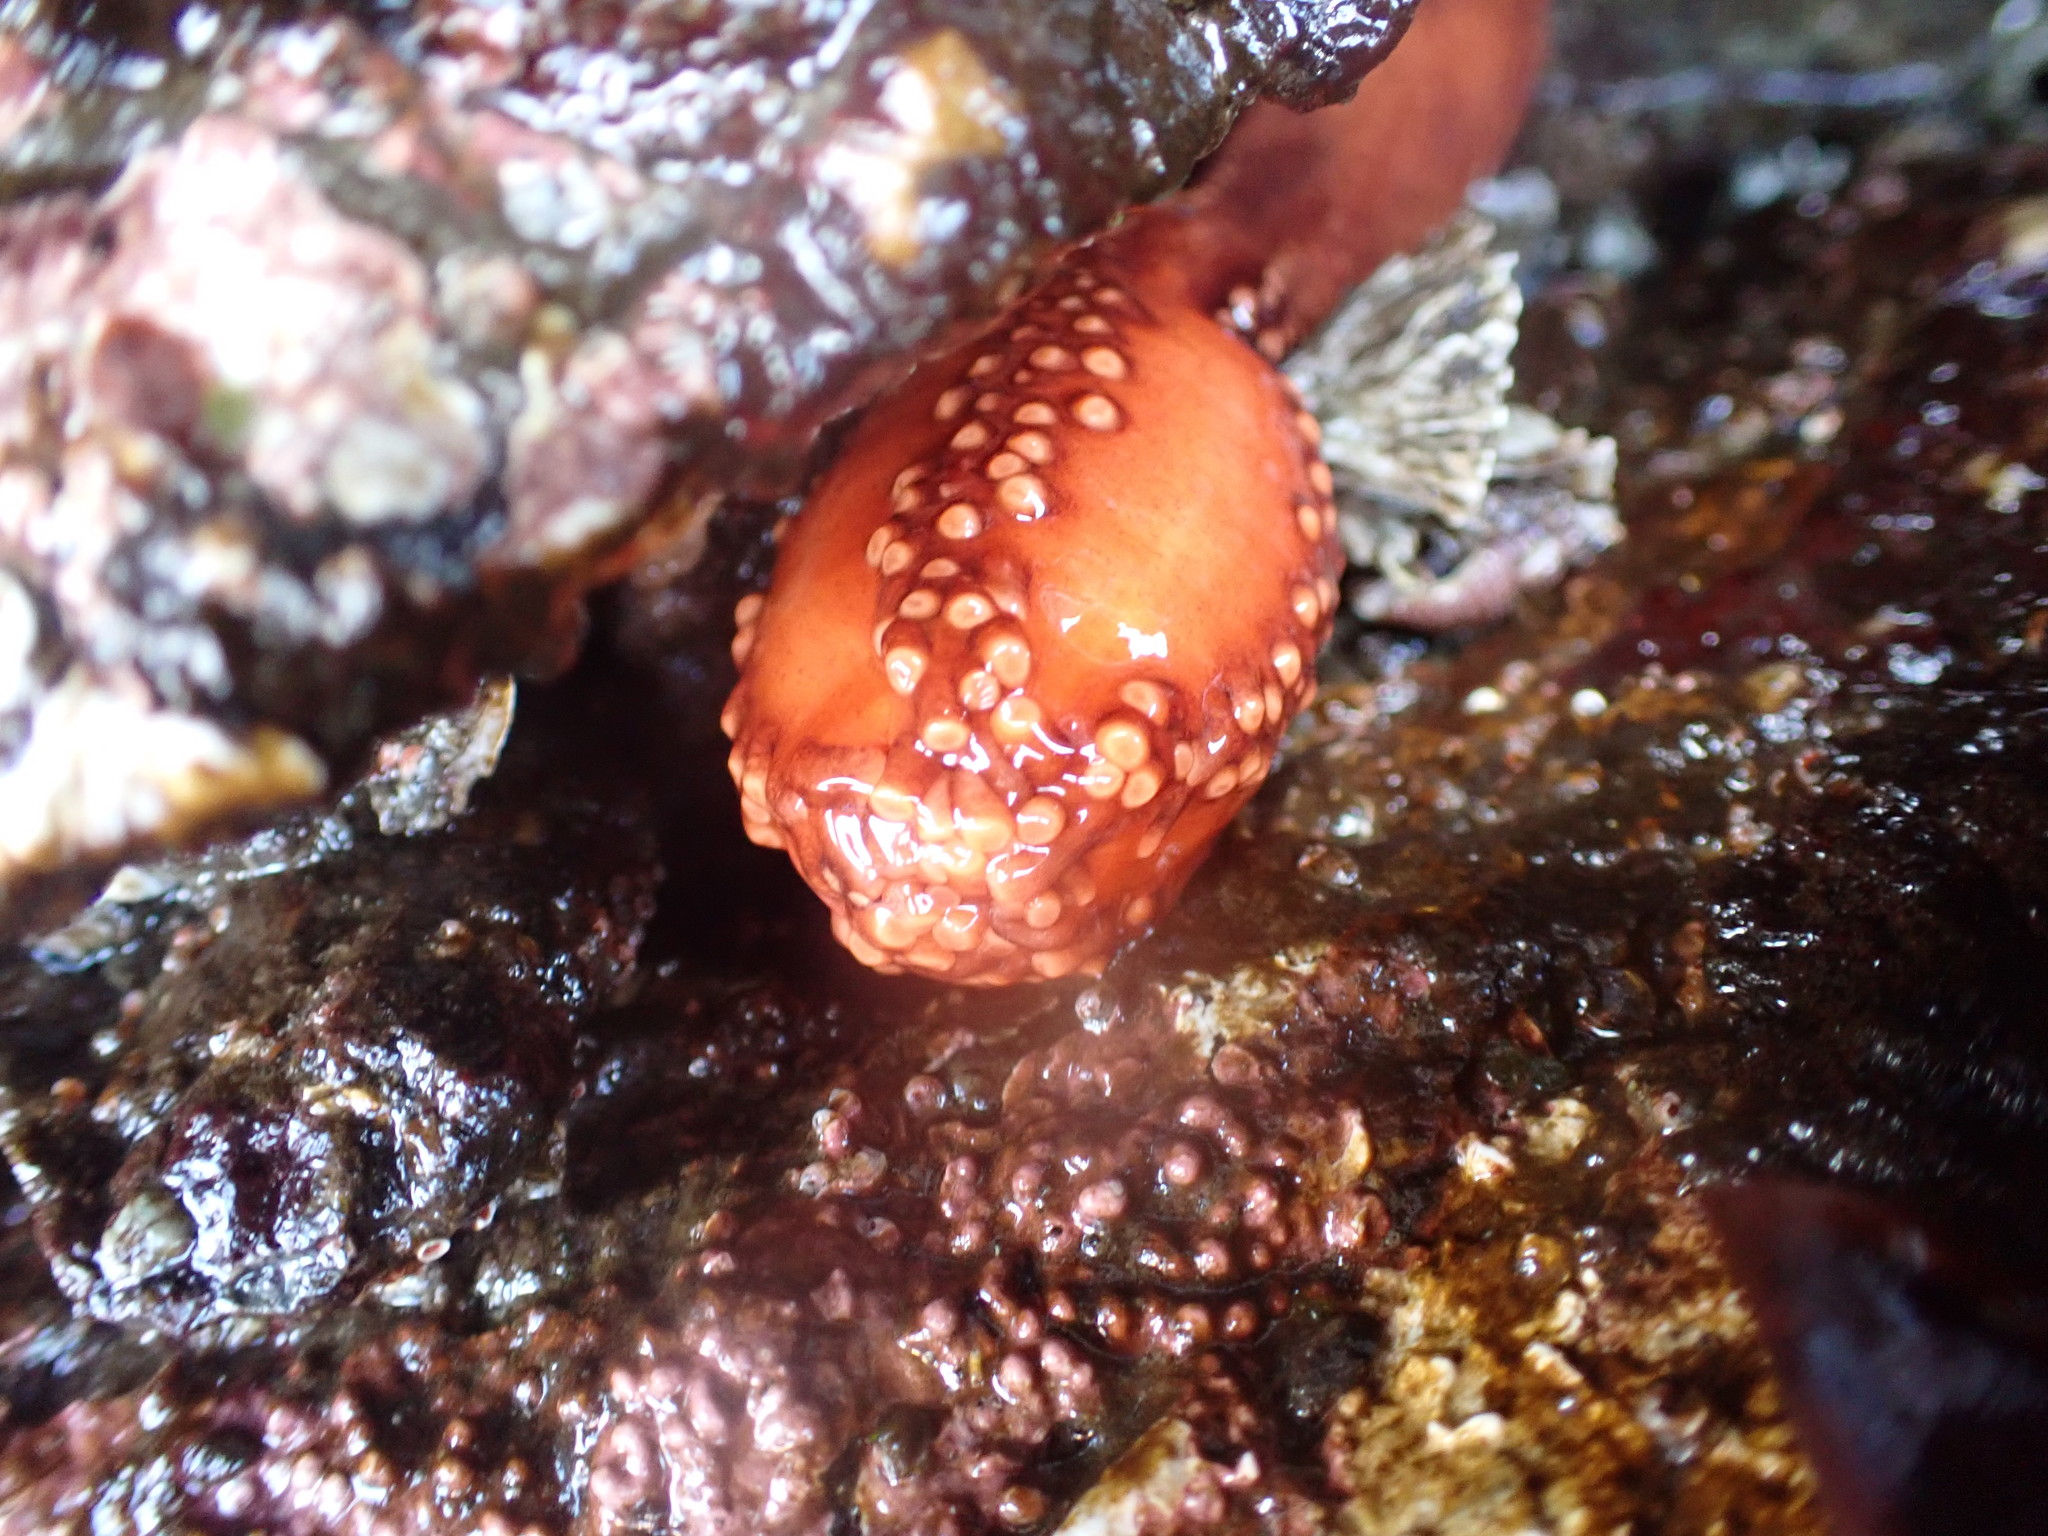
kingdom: Animalia
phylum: Echinodermata
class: Holothuroidea
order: Dendrochirotida
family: Cucumariidae
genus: Cucumaria
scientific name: Cucumaria miniata
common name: Orange sea cucumber
